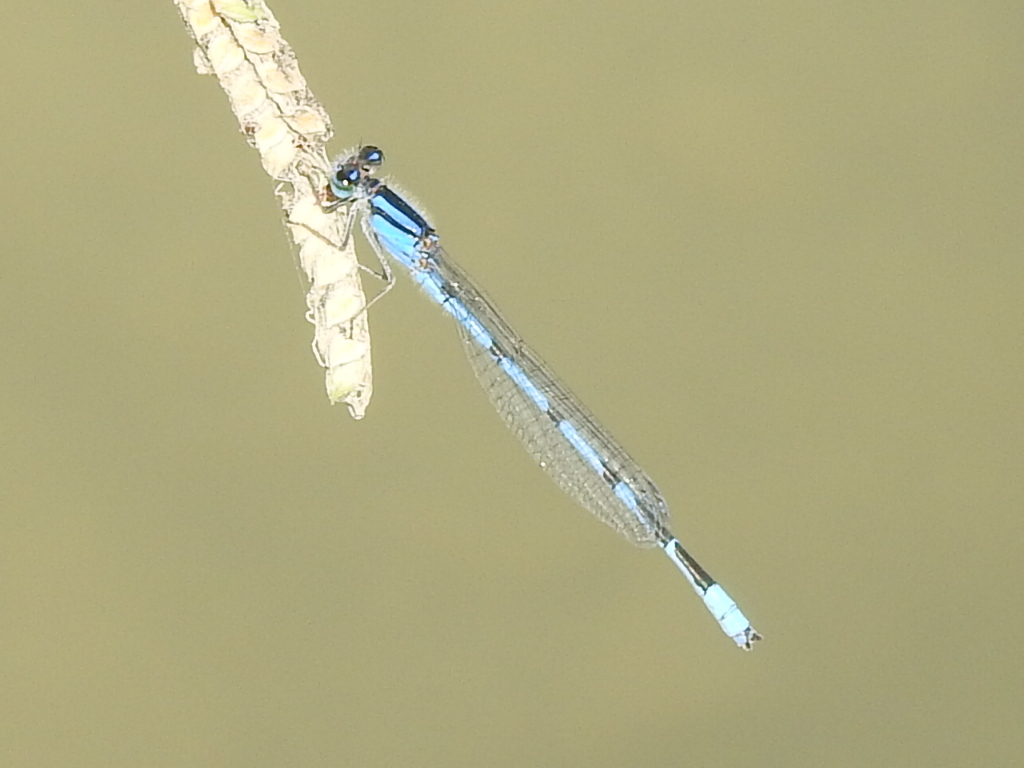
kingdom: Animalia
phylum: Arthropoda
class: Insecta
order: Odonata
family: Coenagrionidae
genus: Enallagma
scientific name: Enallagma civile
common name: Damselfly
